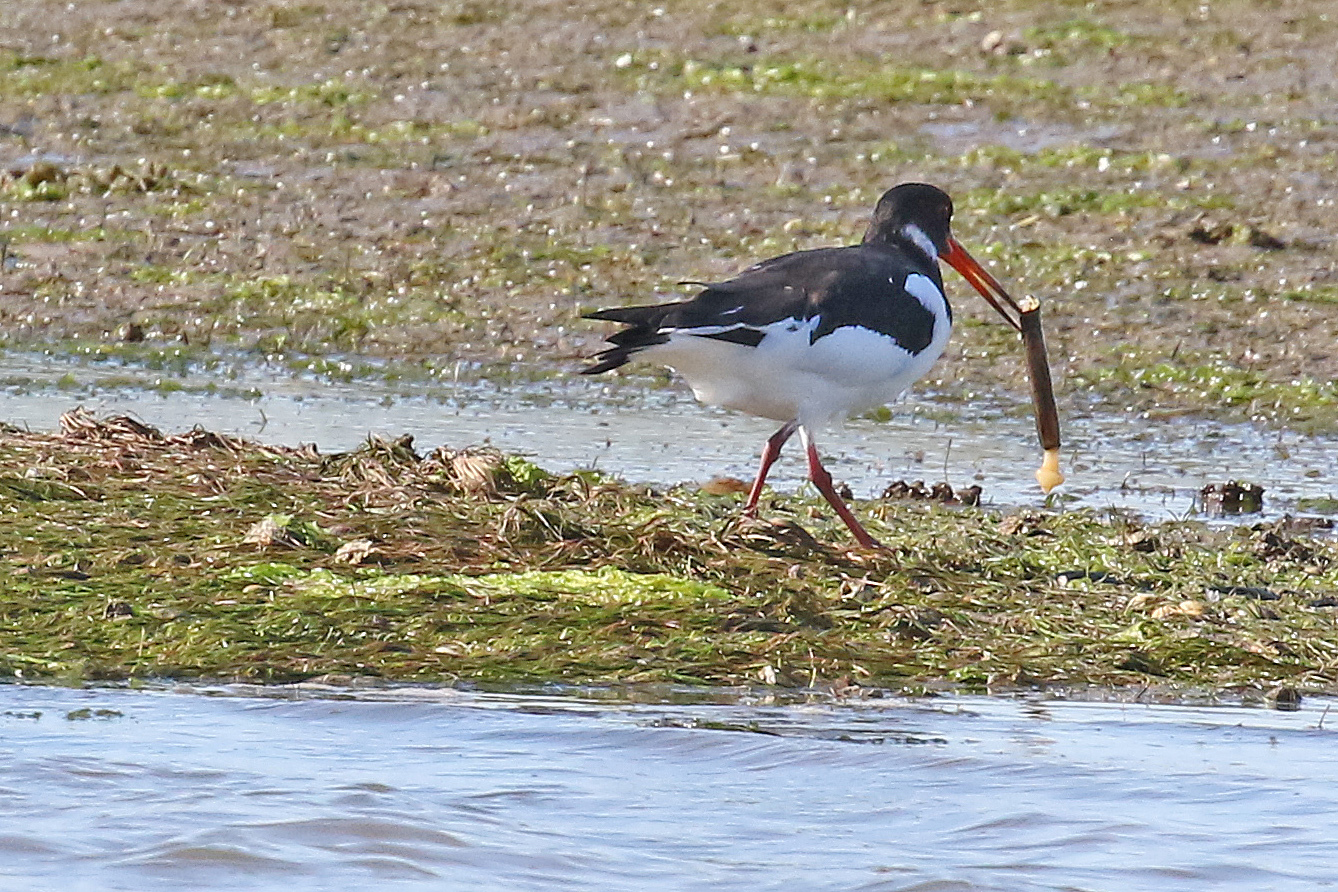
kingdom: Animalia
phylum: Chordata
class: Aves
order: Charadriiformes
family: Haematopodidae
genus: Haematopus
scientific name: Haematopus ostralegus
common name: Eurasian oystercatcher
